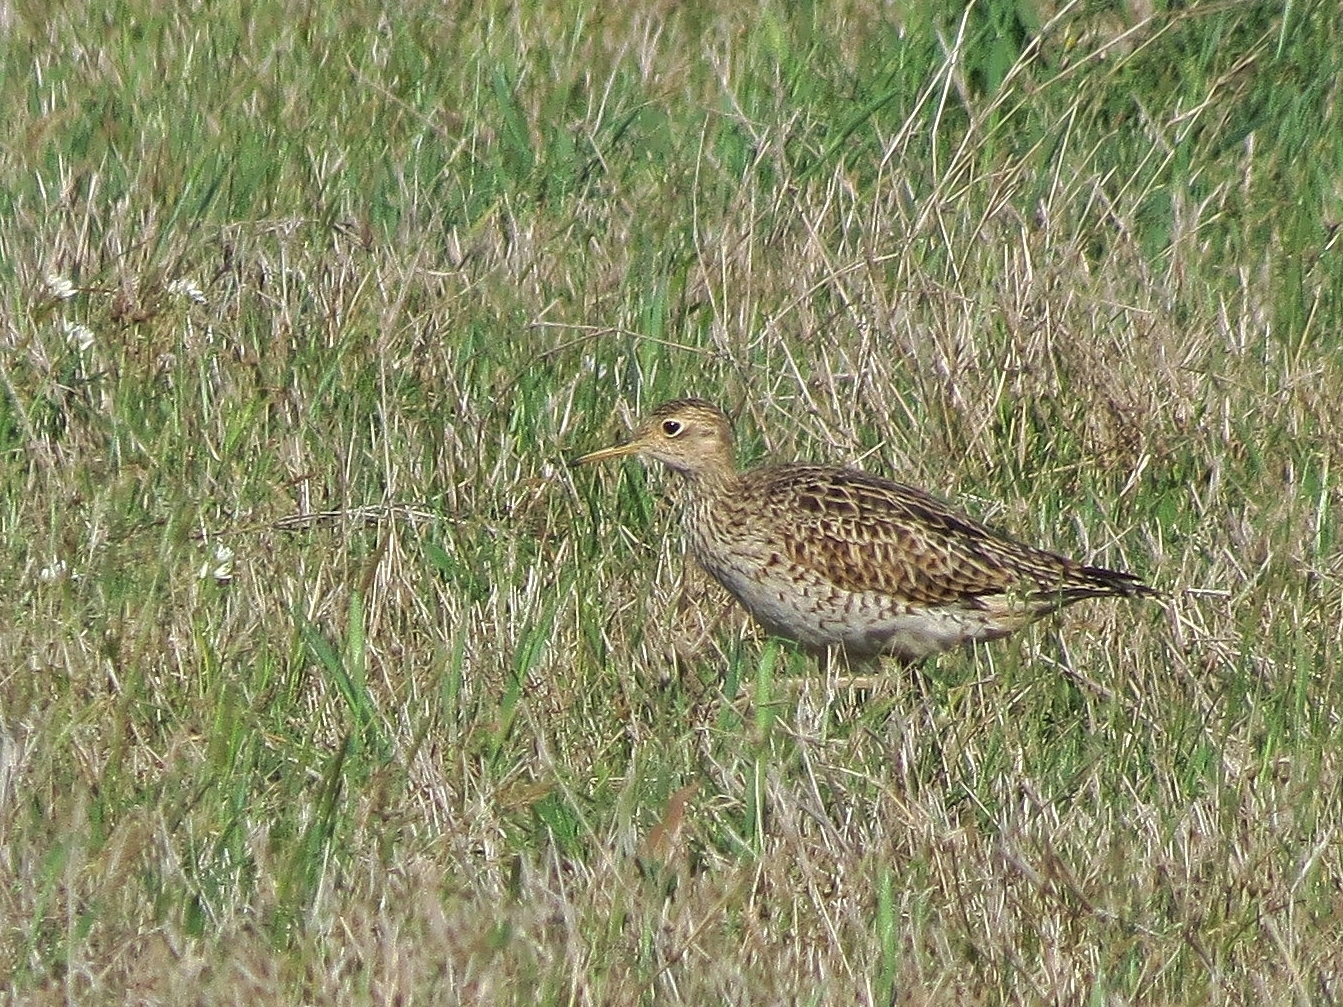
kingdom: Animalia
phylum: Chordata
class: Aves
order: Charadriiformes
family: Scolopacidae
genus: Bartramia
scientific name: Bartramia longicauda
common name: Upland sandpiper
